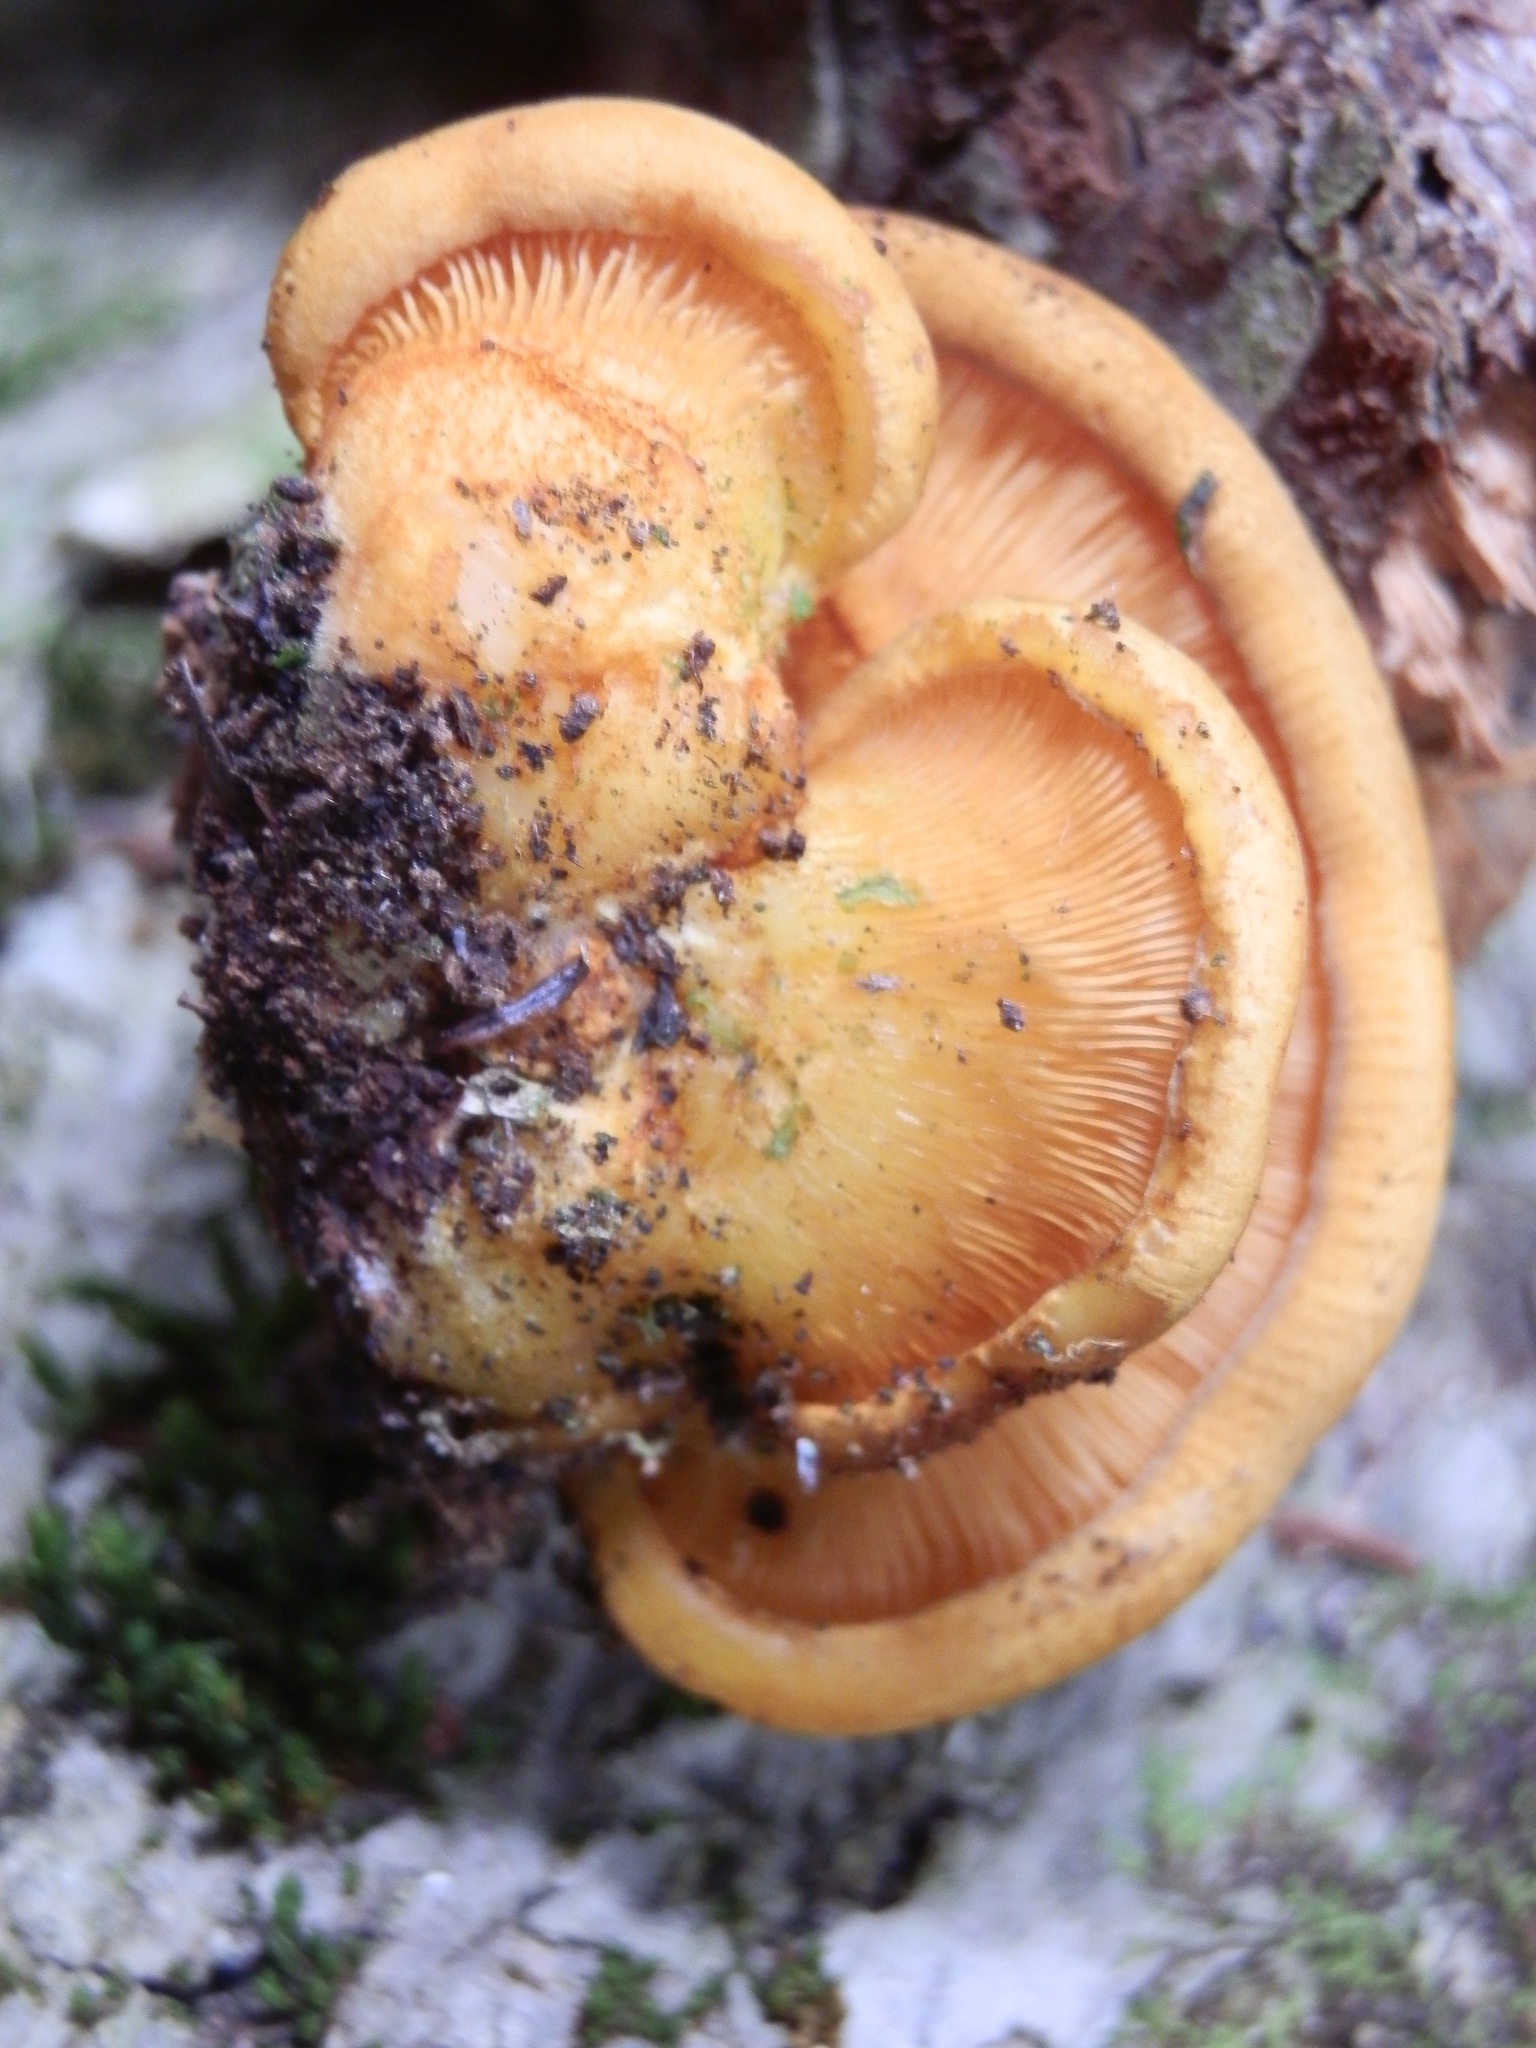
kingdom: Fungi
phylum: Basidiomycota
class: Agaricomycetes
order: Agaricales
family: Sarcomyxaceae
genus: Sarcomyxa
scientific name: Sarcomyxa serotina
